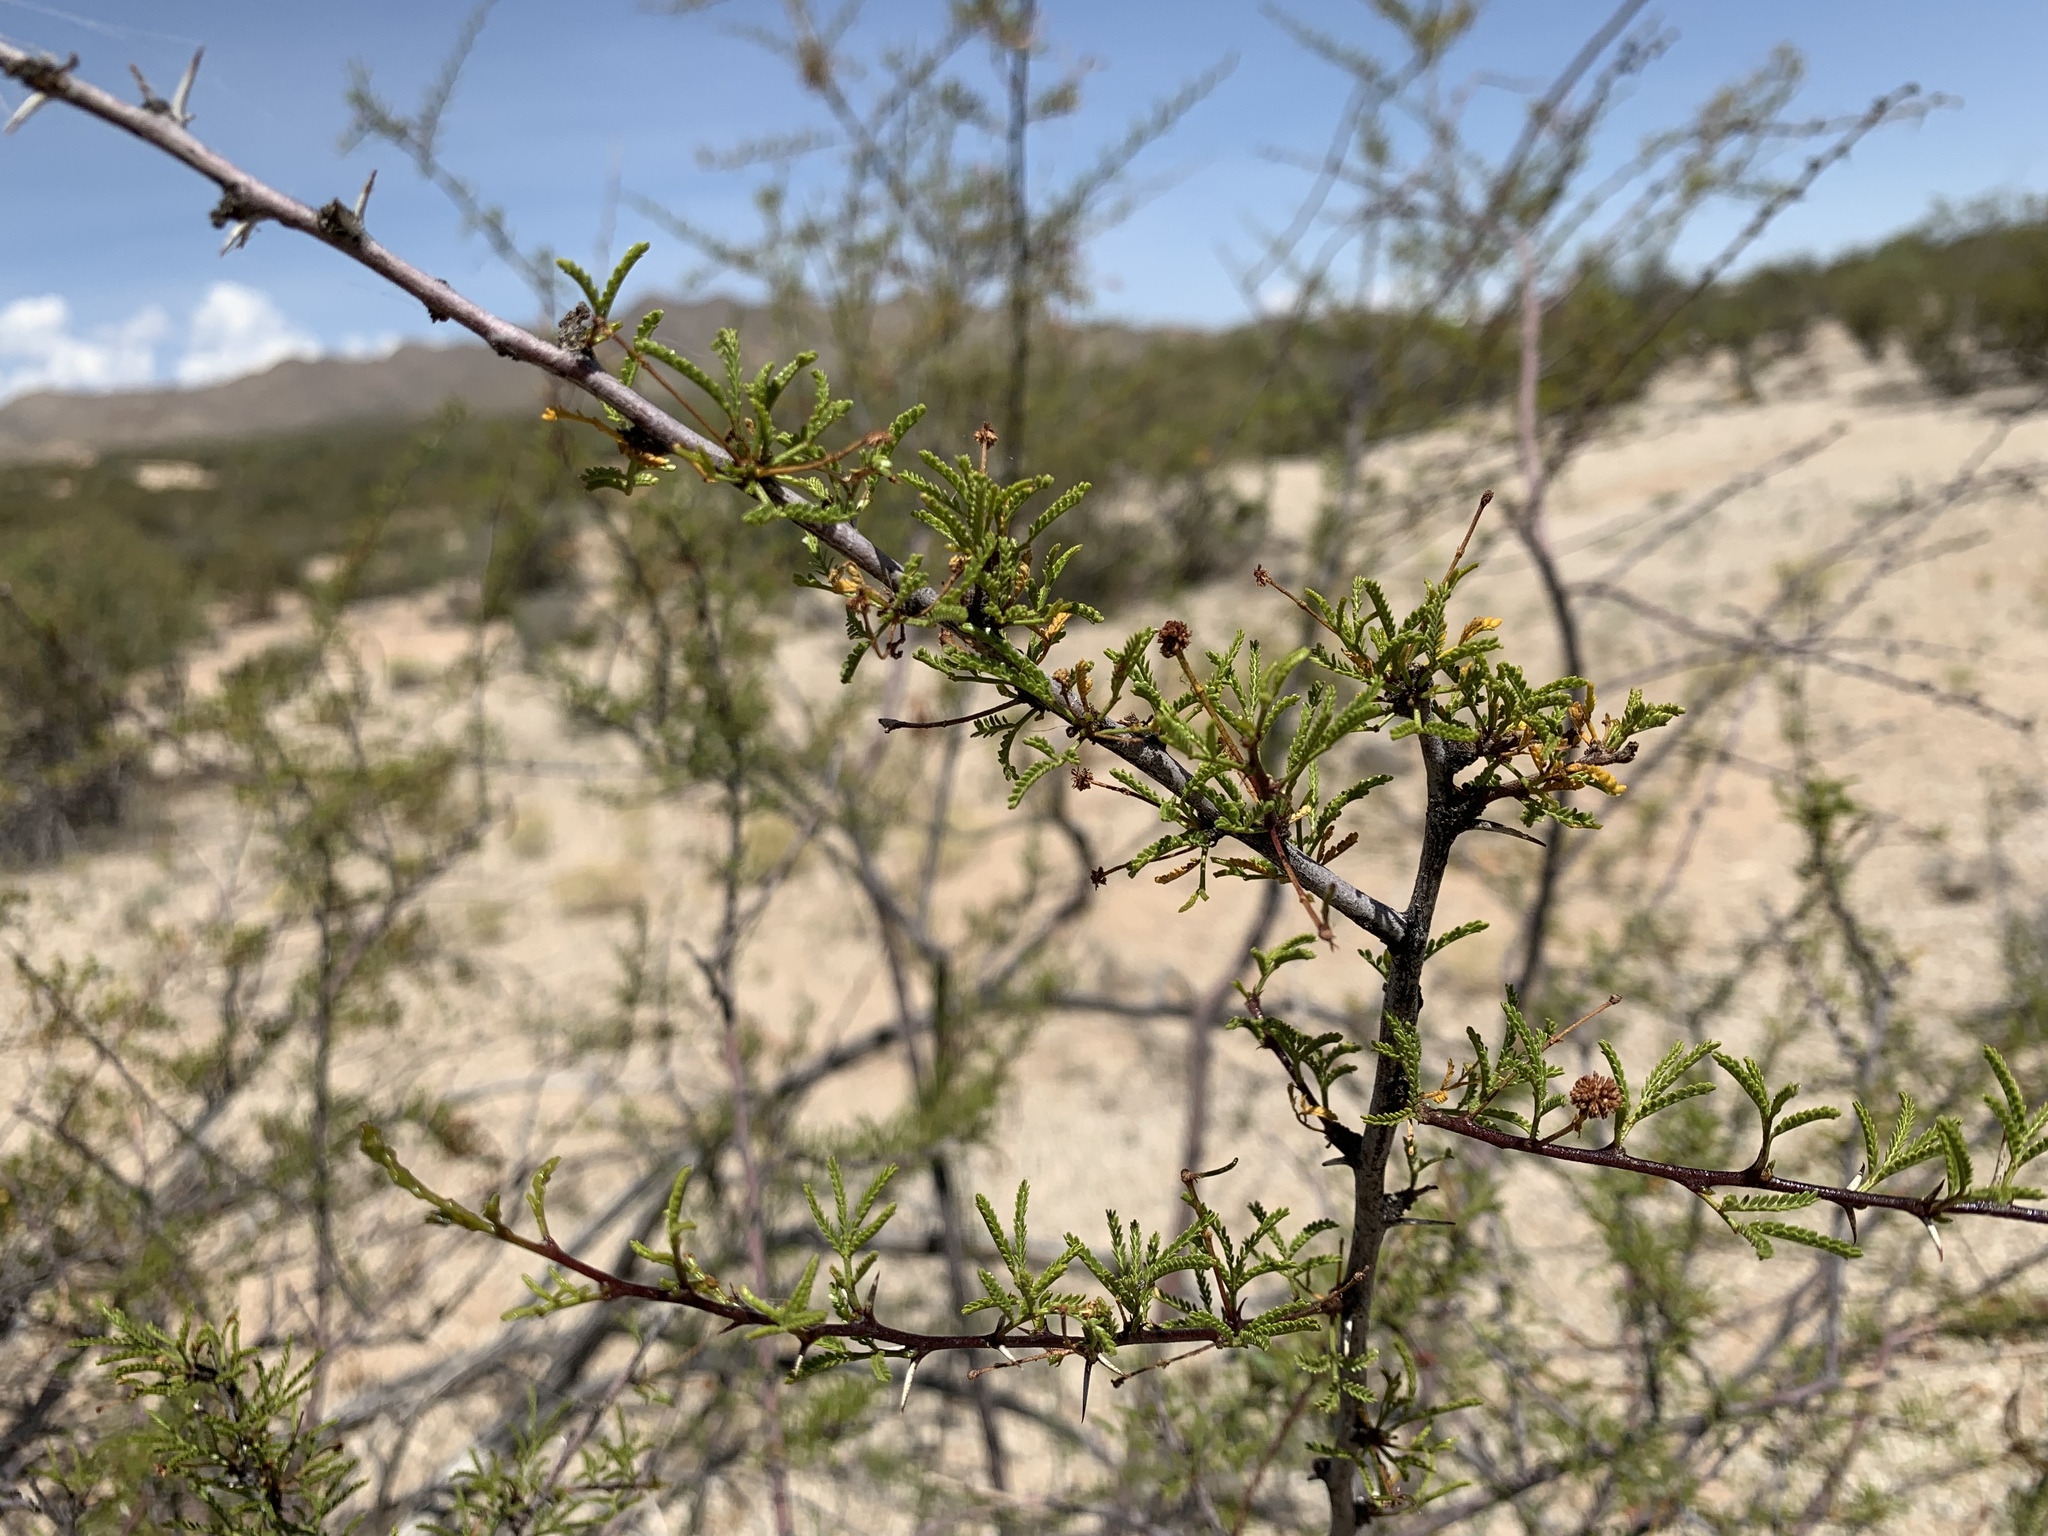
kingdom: Plantae
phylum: Tracheophyta
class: Magnoliopsida
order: Fabales
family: Fabaceae
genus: Vachellia
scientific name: Vachellia constricta
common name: Mescat acacia
